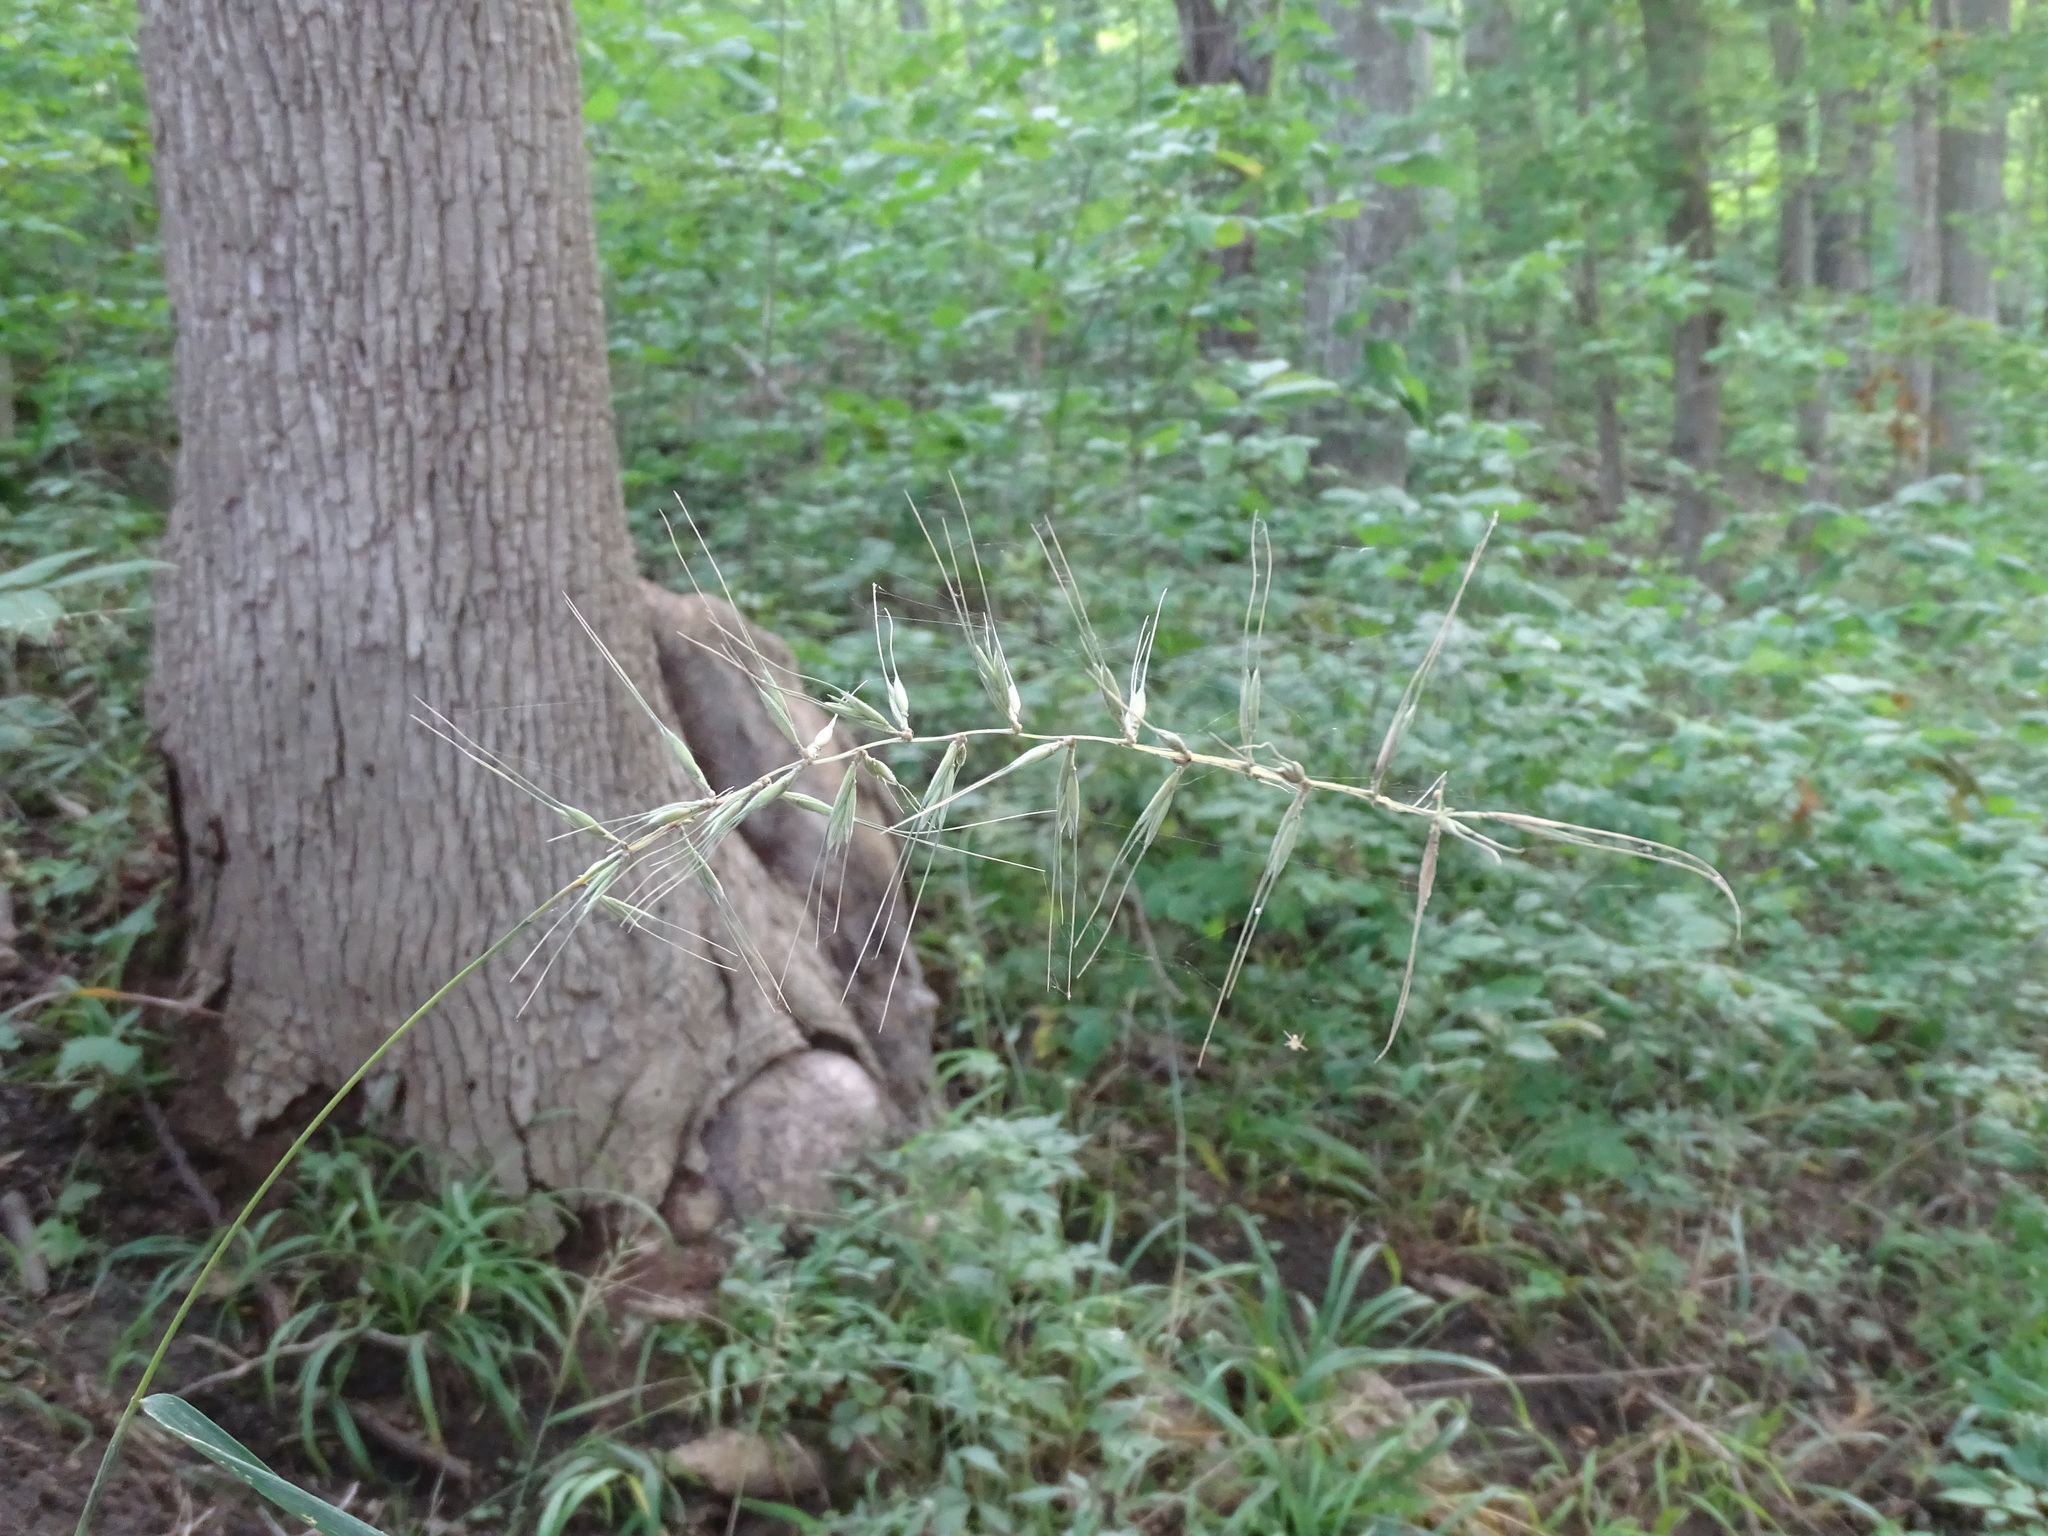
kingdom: Plantae
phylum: Tracheophyta
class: Liliopsida
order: Poales
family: Poaceae
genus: Elymus
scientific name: Elymus hystrix
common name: Bottlebrush grass
